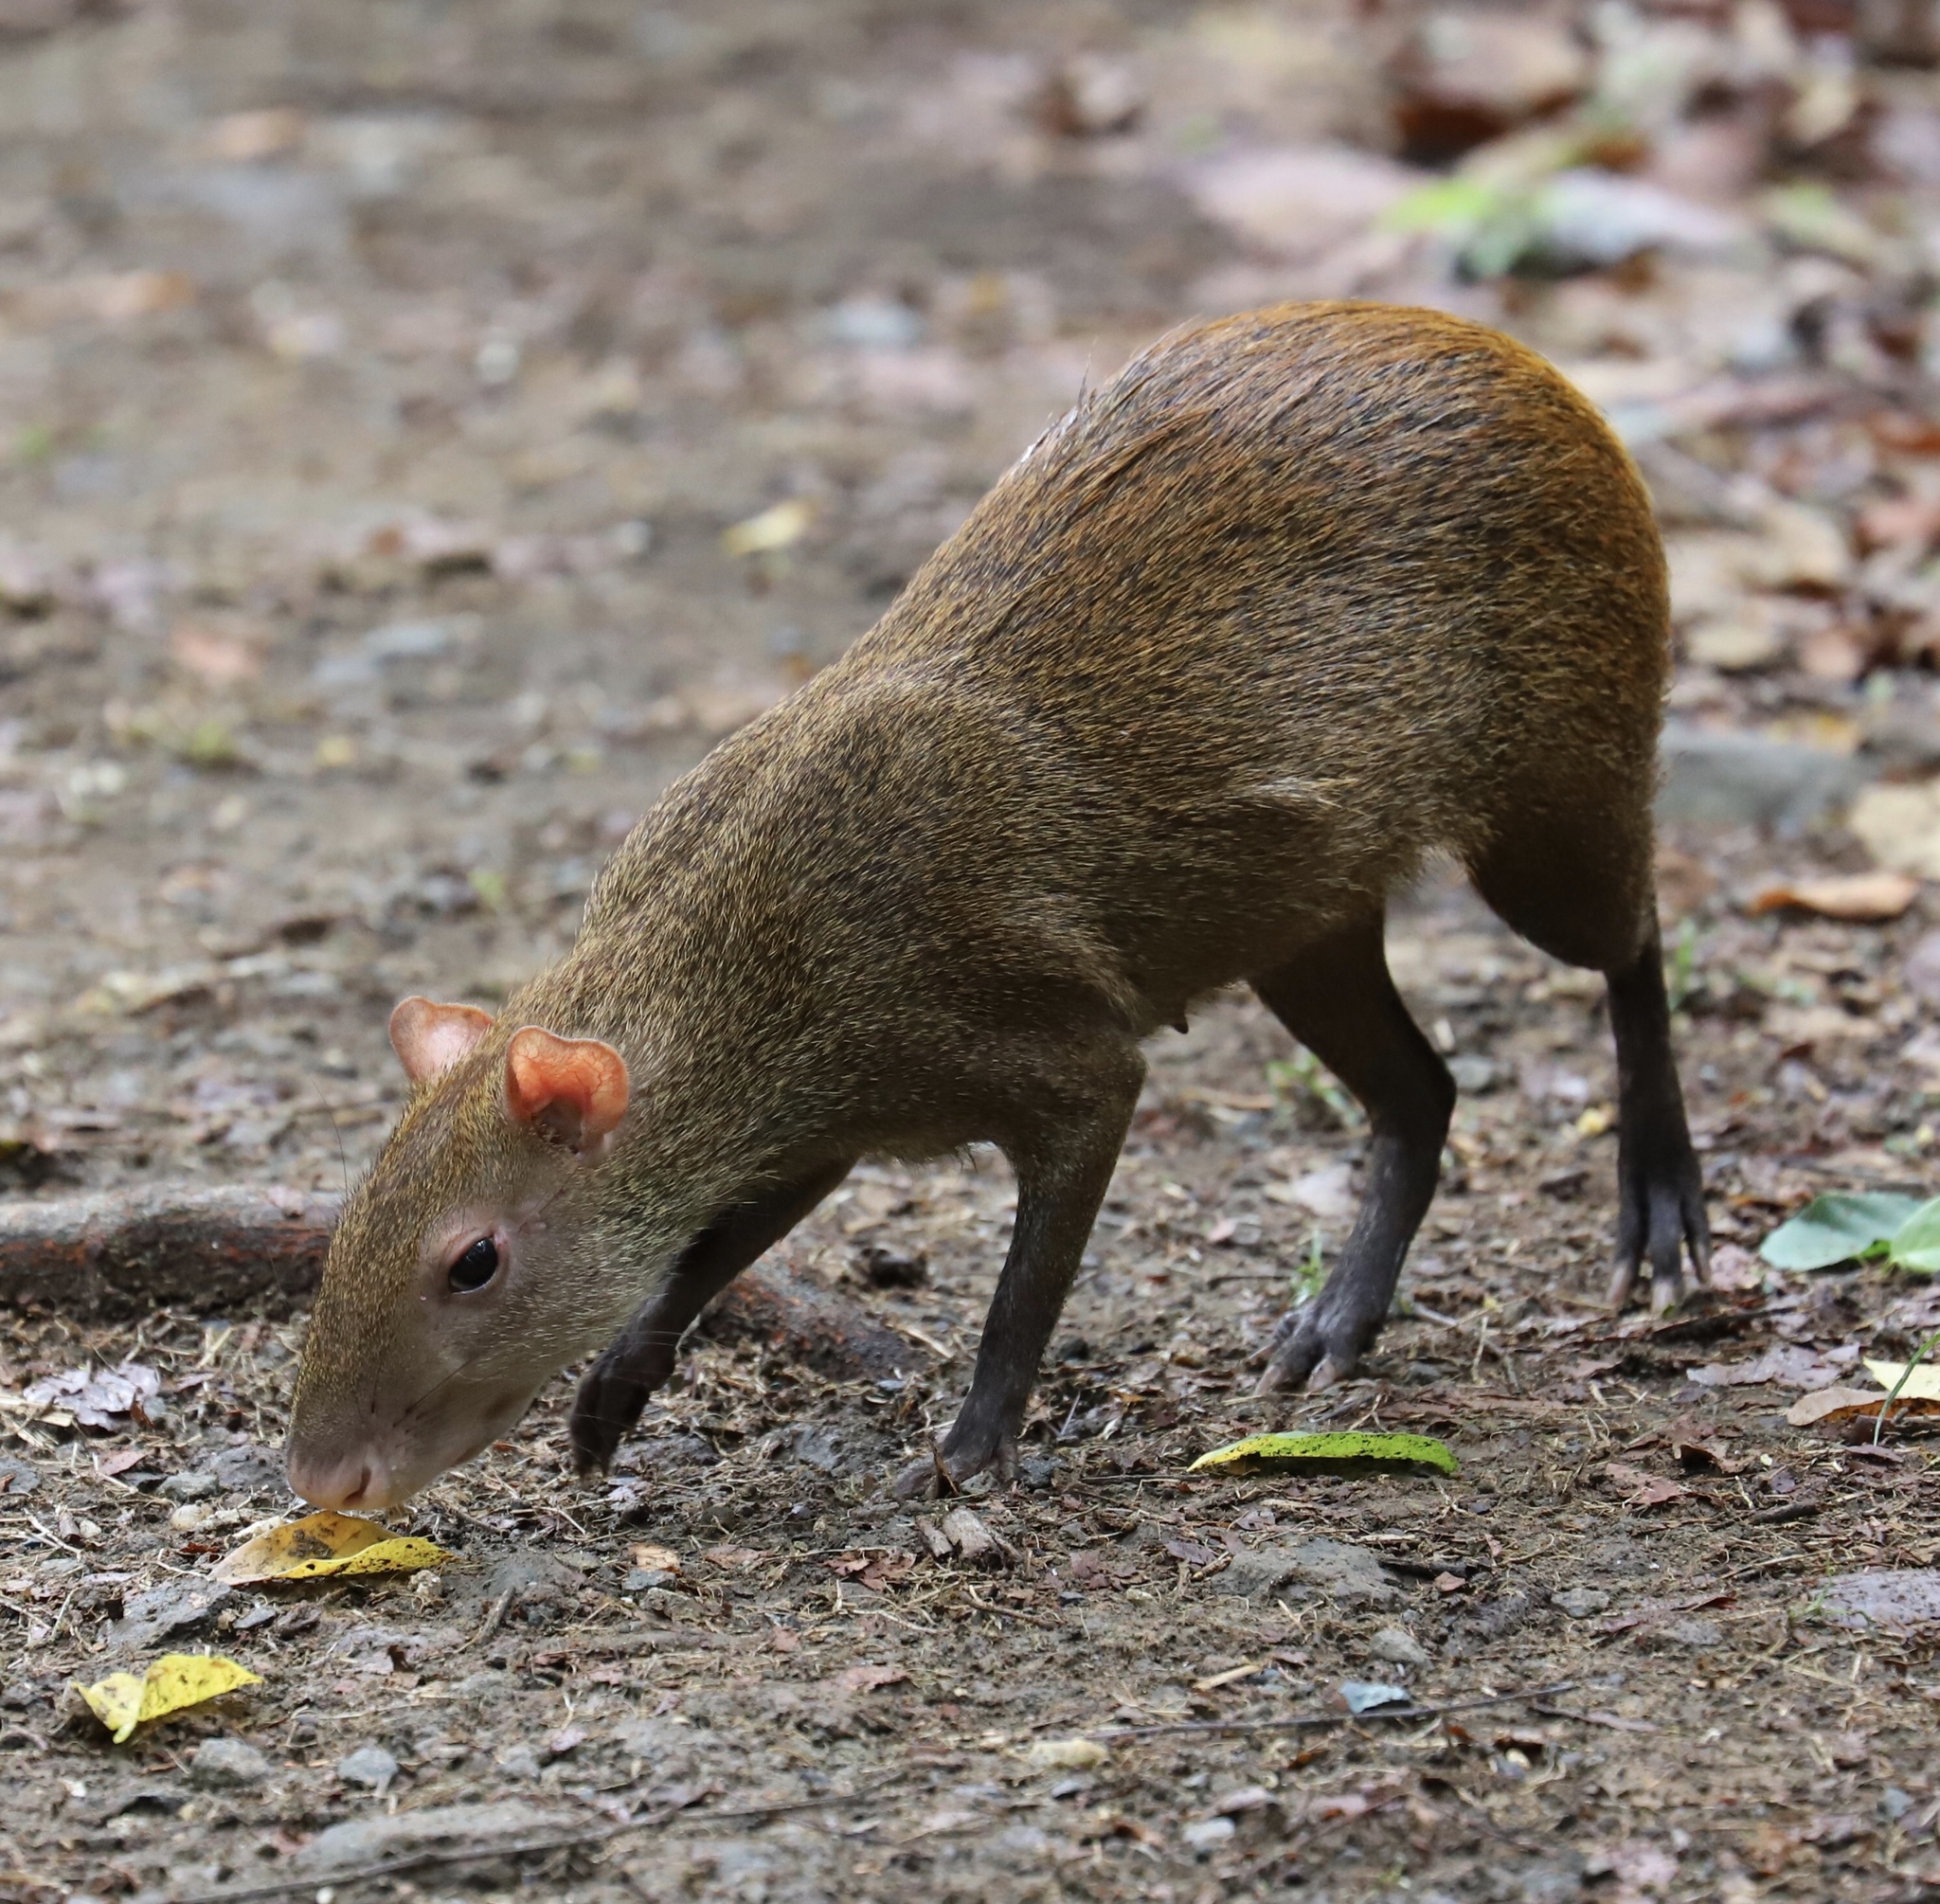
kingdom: Animalia
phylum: Chordata
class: Mammalia
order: Rodentia
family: Dasyproctidae
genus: Dasyprocta
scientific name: Dasyprocta punctata
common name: Central american agouti
